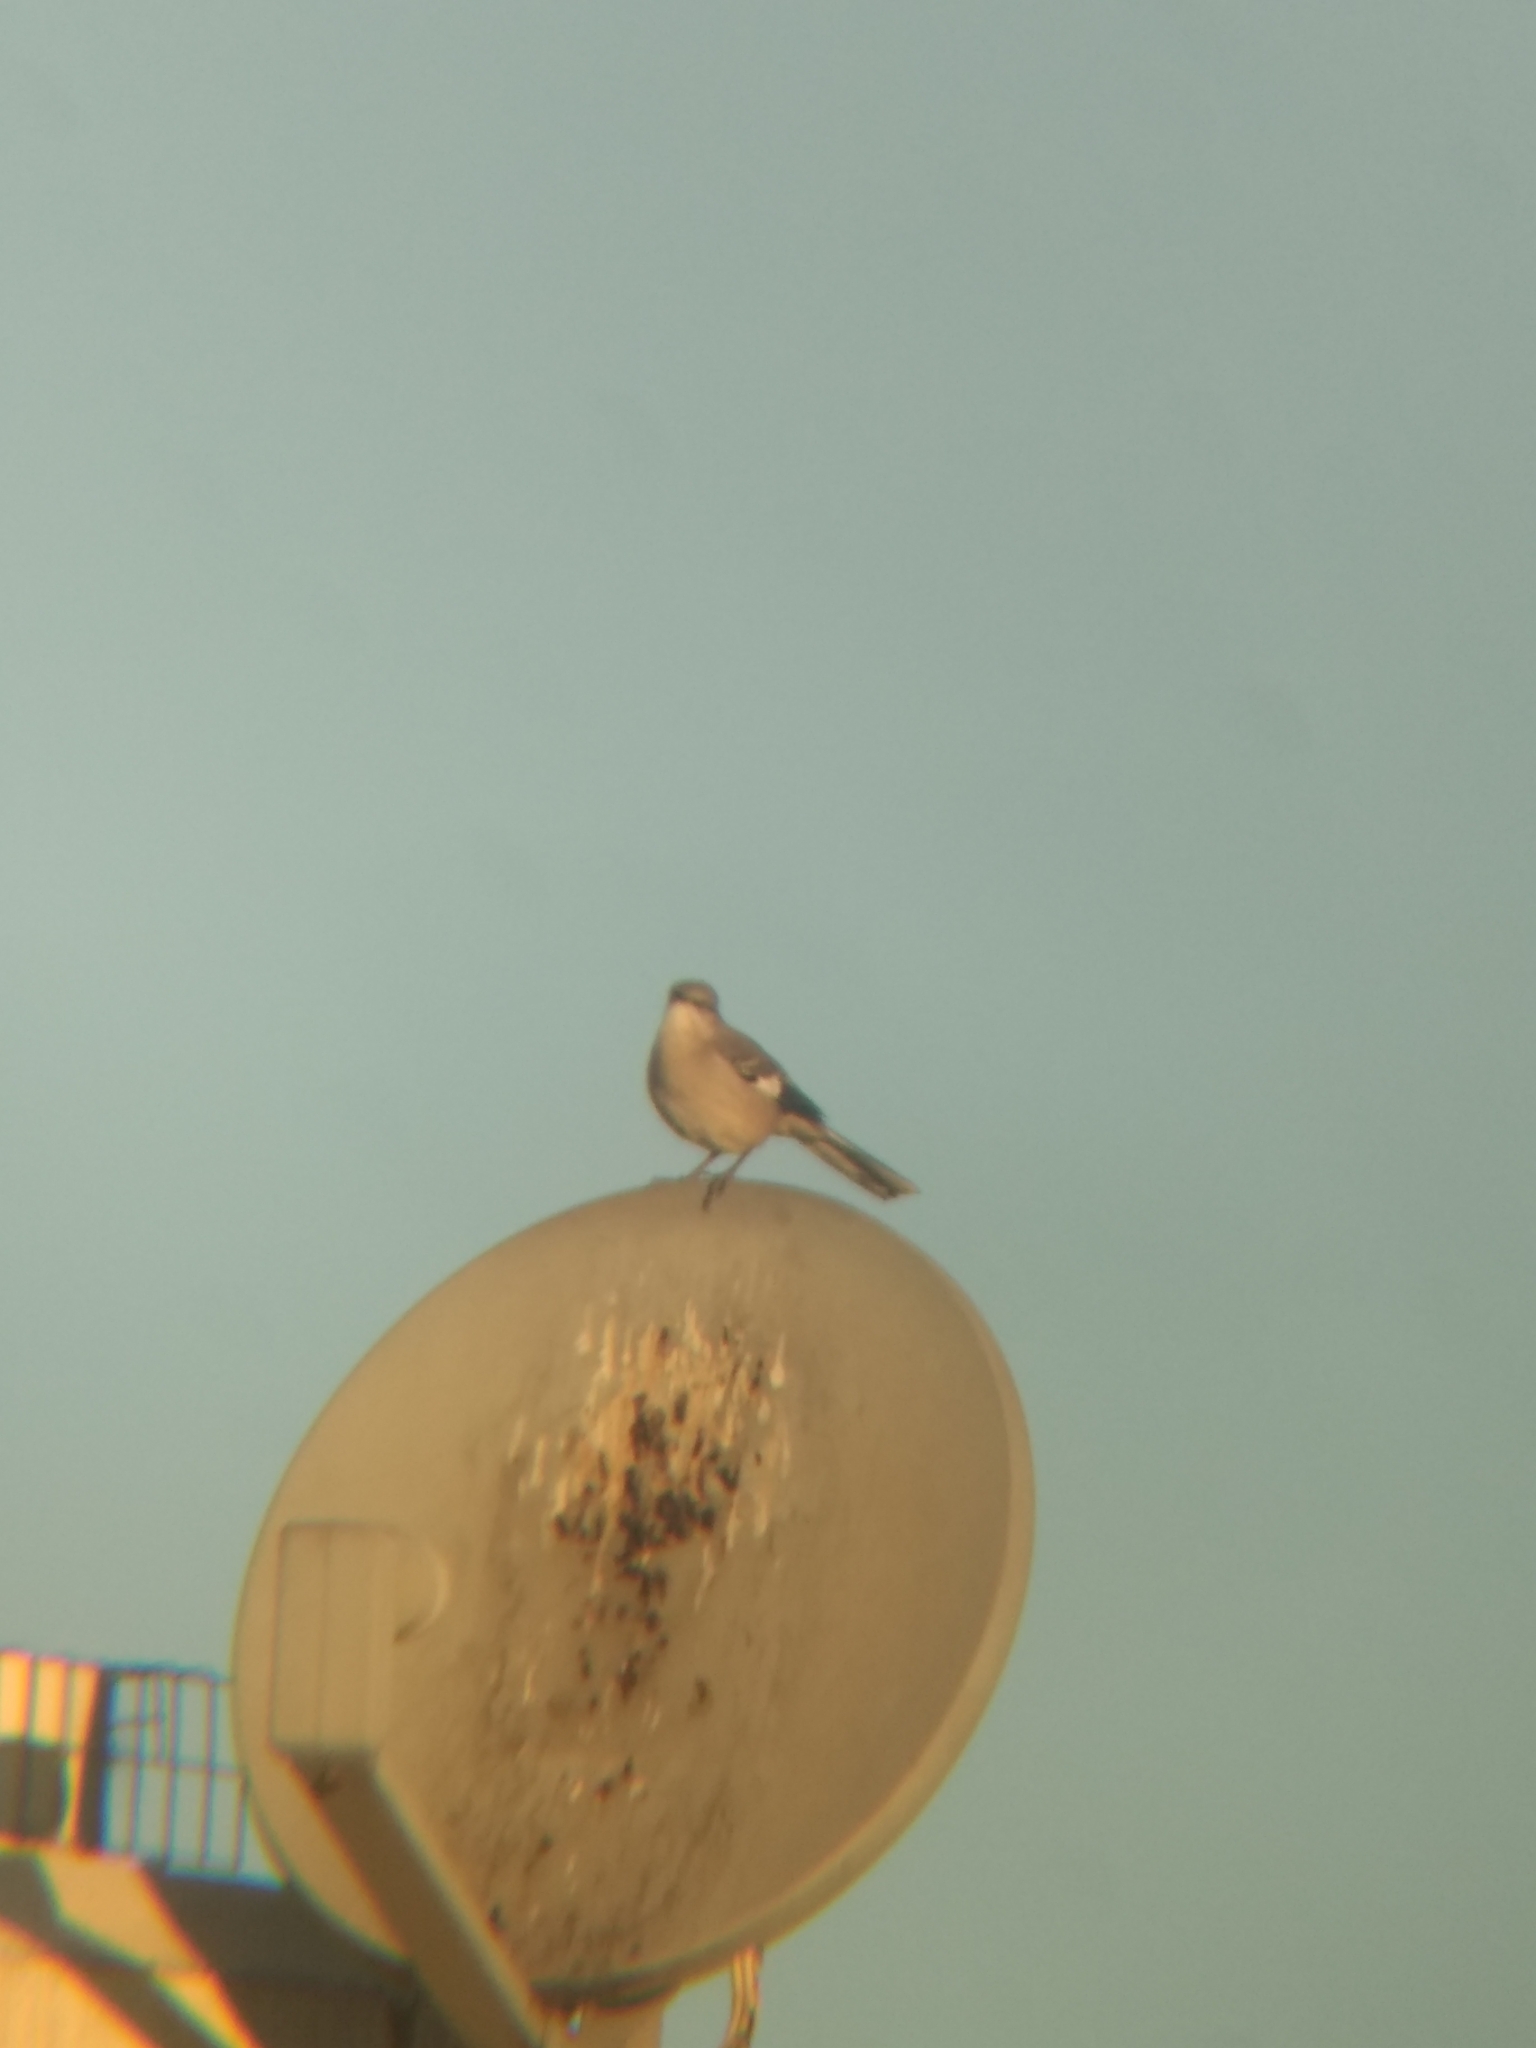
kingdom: Animalia
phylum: Chordata
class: Aves
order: Passeriformes
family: Mimidae
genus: Mimus
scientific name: Mimus polyglottos
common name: Northern mockingbird
